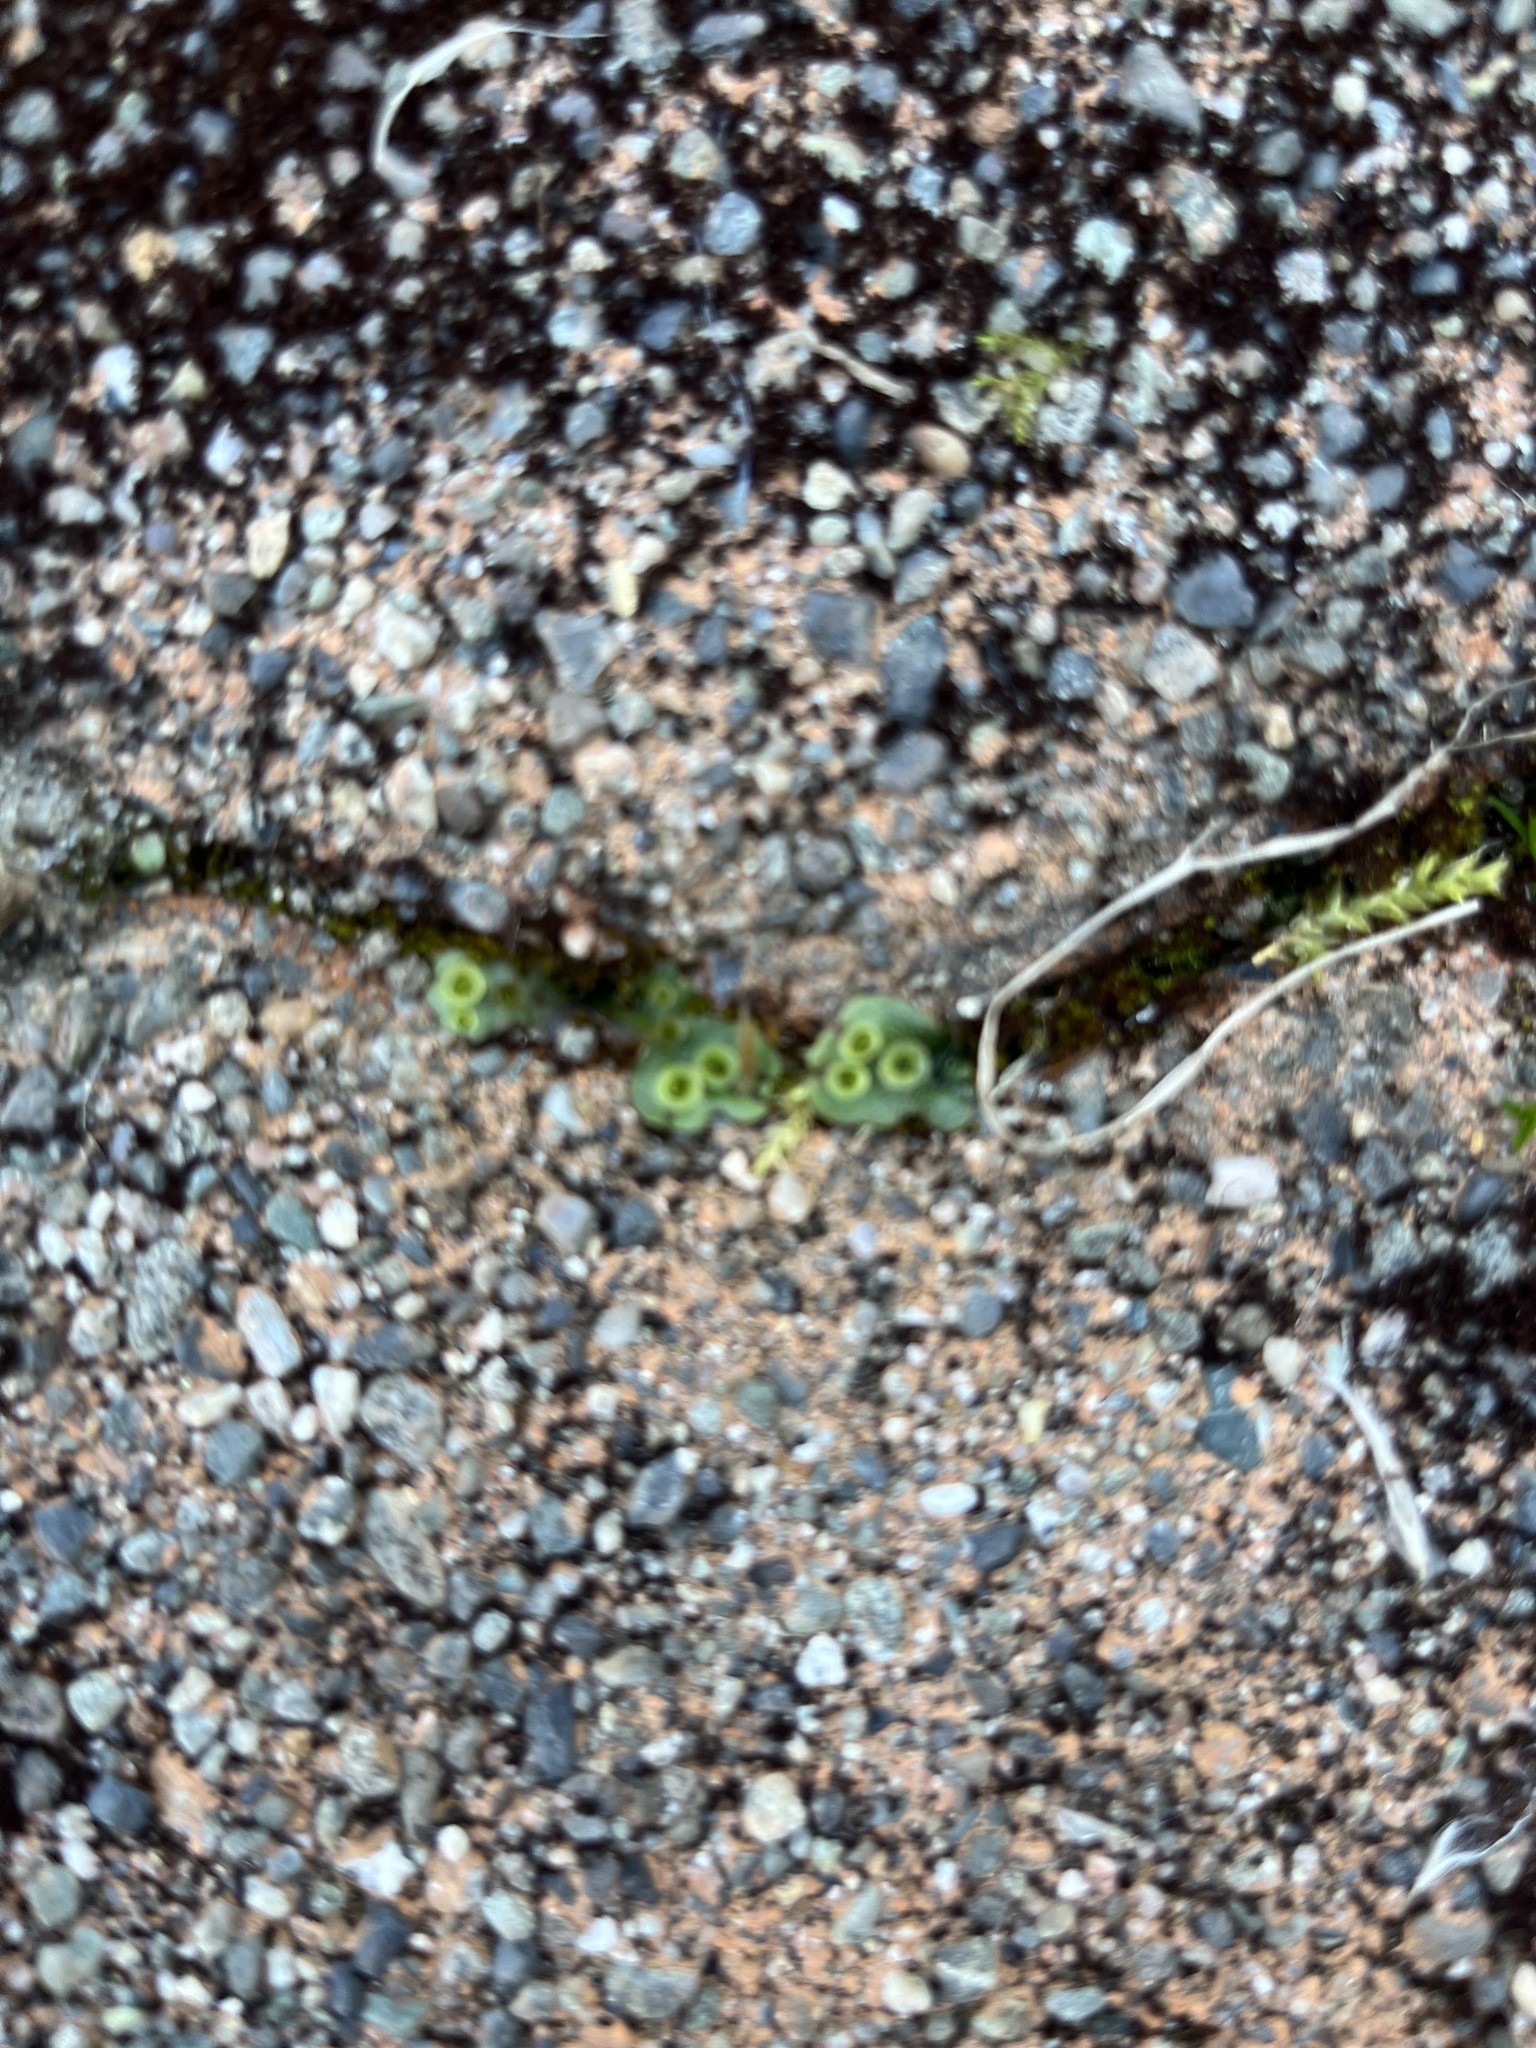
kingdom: Plantae
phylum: Marchantiophyta
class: Marchantiopsida
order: Marchantiales
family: Marchantiaceae
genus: Marchantia
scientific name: Marchantia polymorpha
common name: Common liverwort
